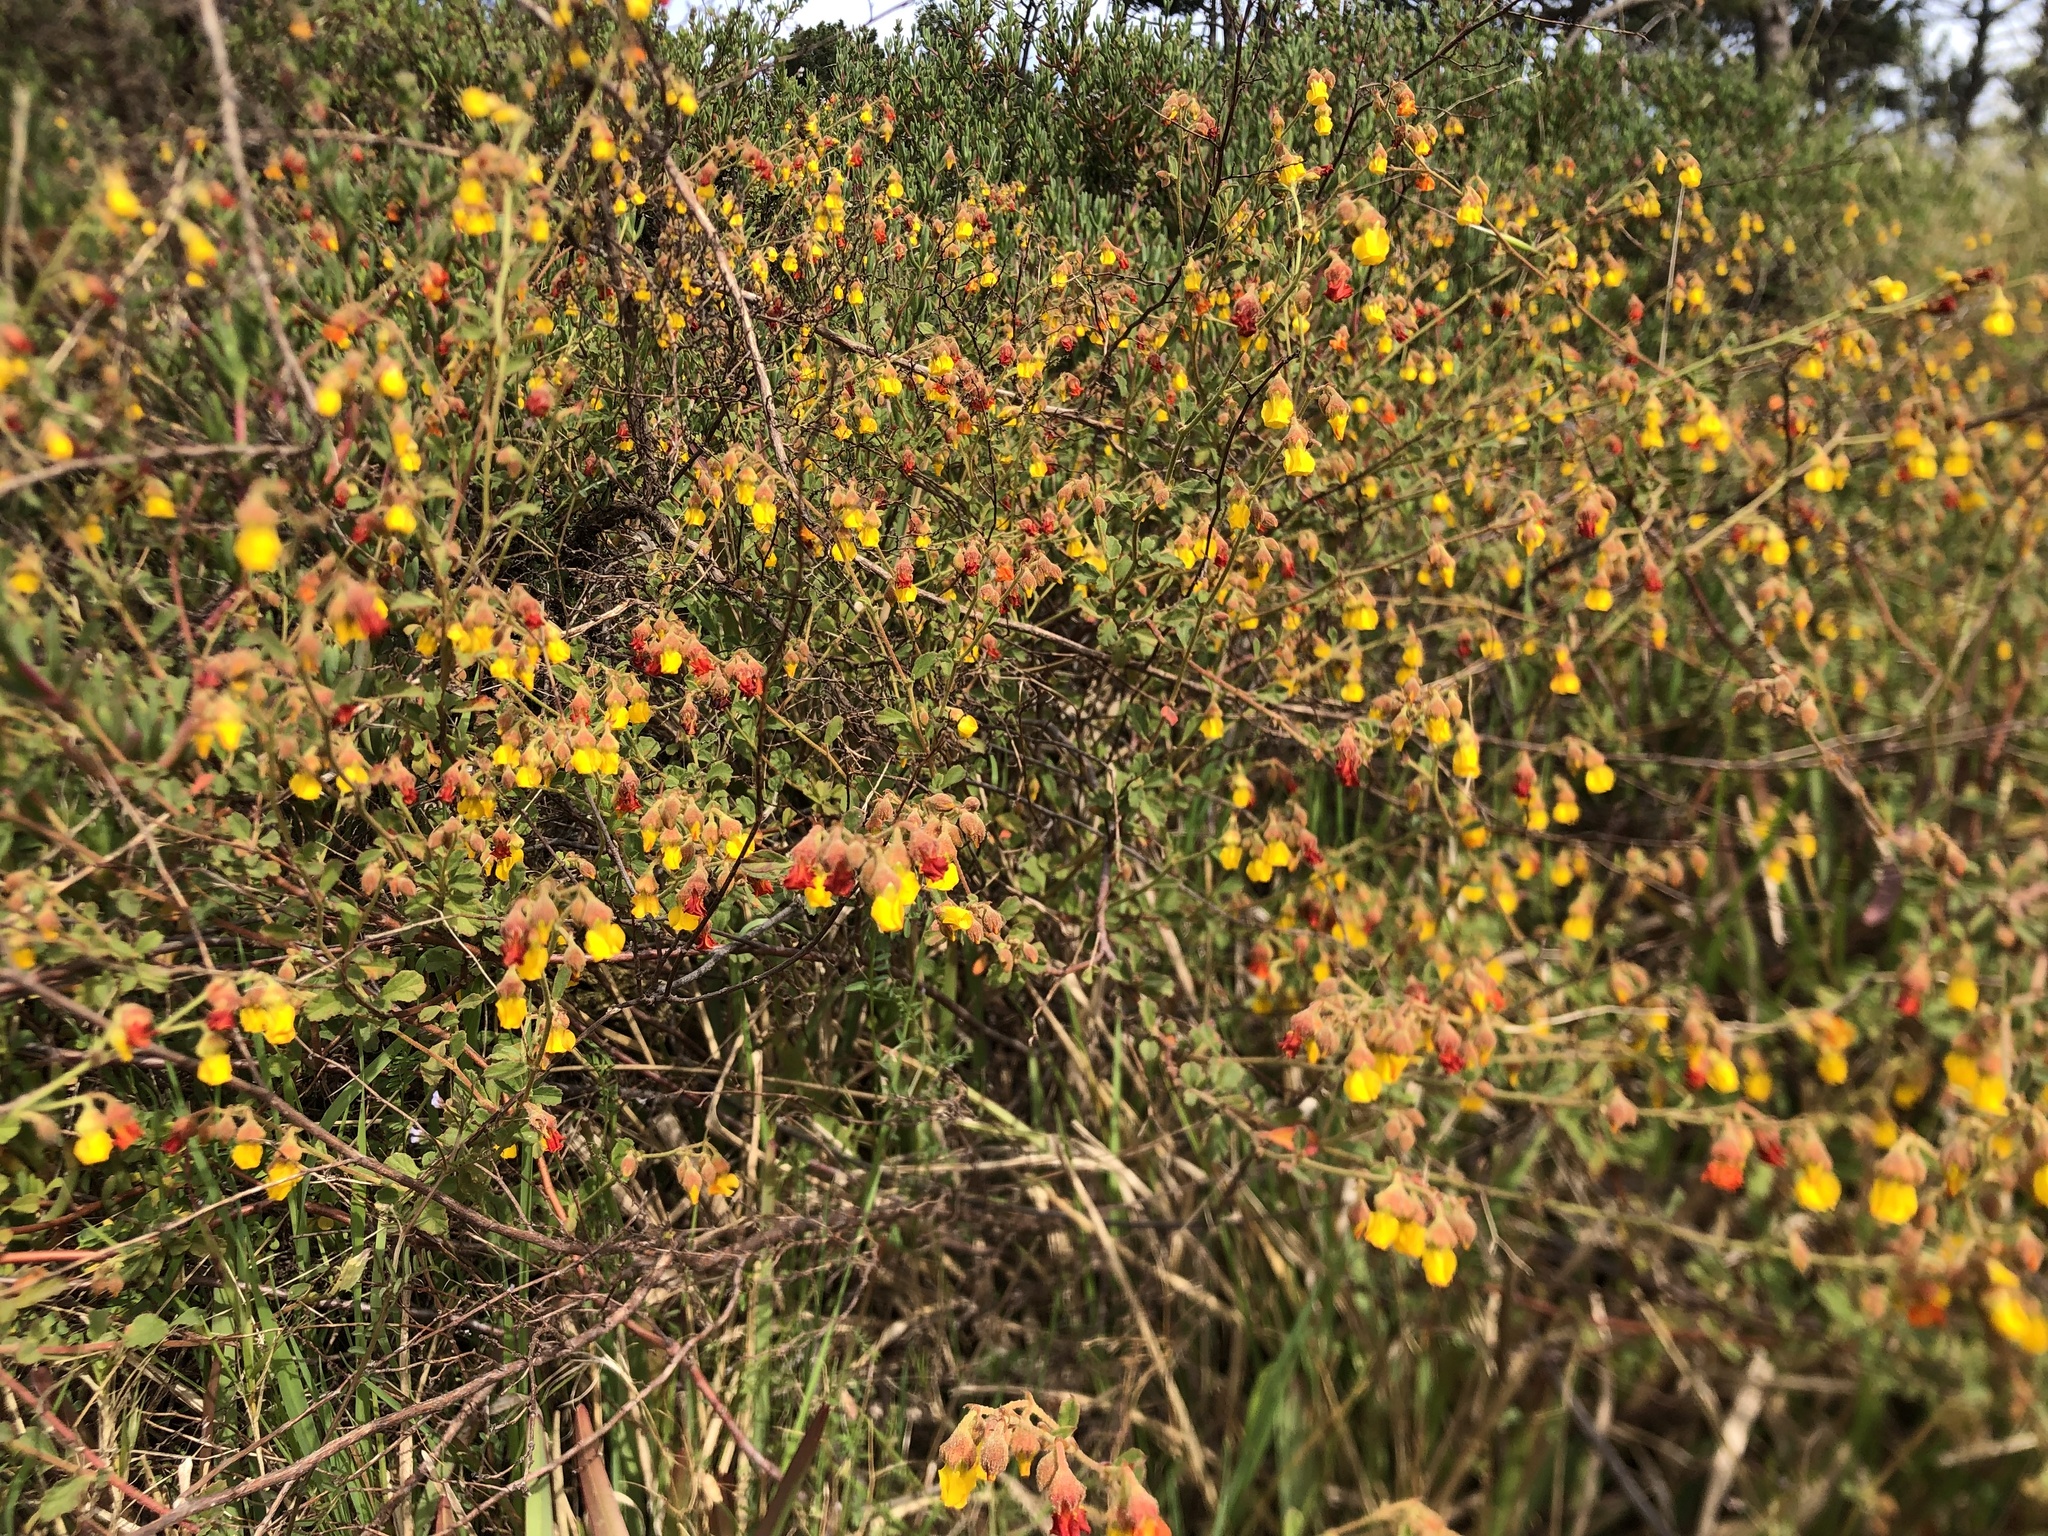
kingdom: Plantae
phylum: Tracheophyta
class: Magnoliopsida
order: Malvales
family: Malvaceae
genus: Hermannia
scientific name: Hermannia multiflora
